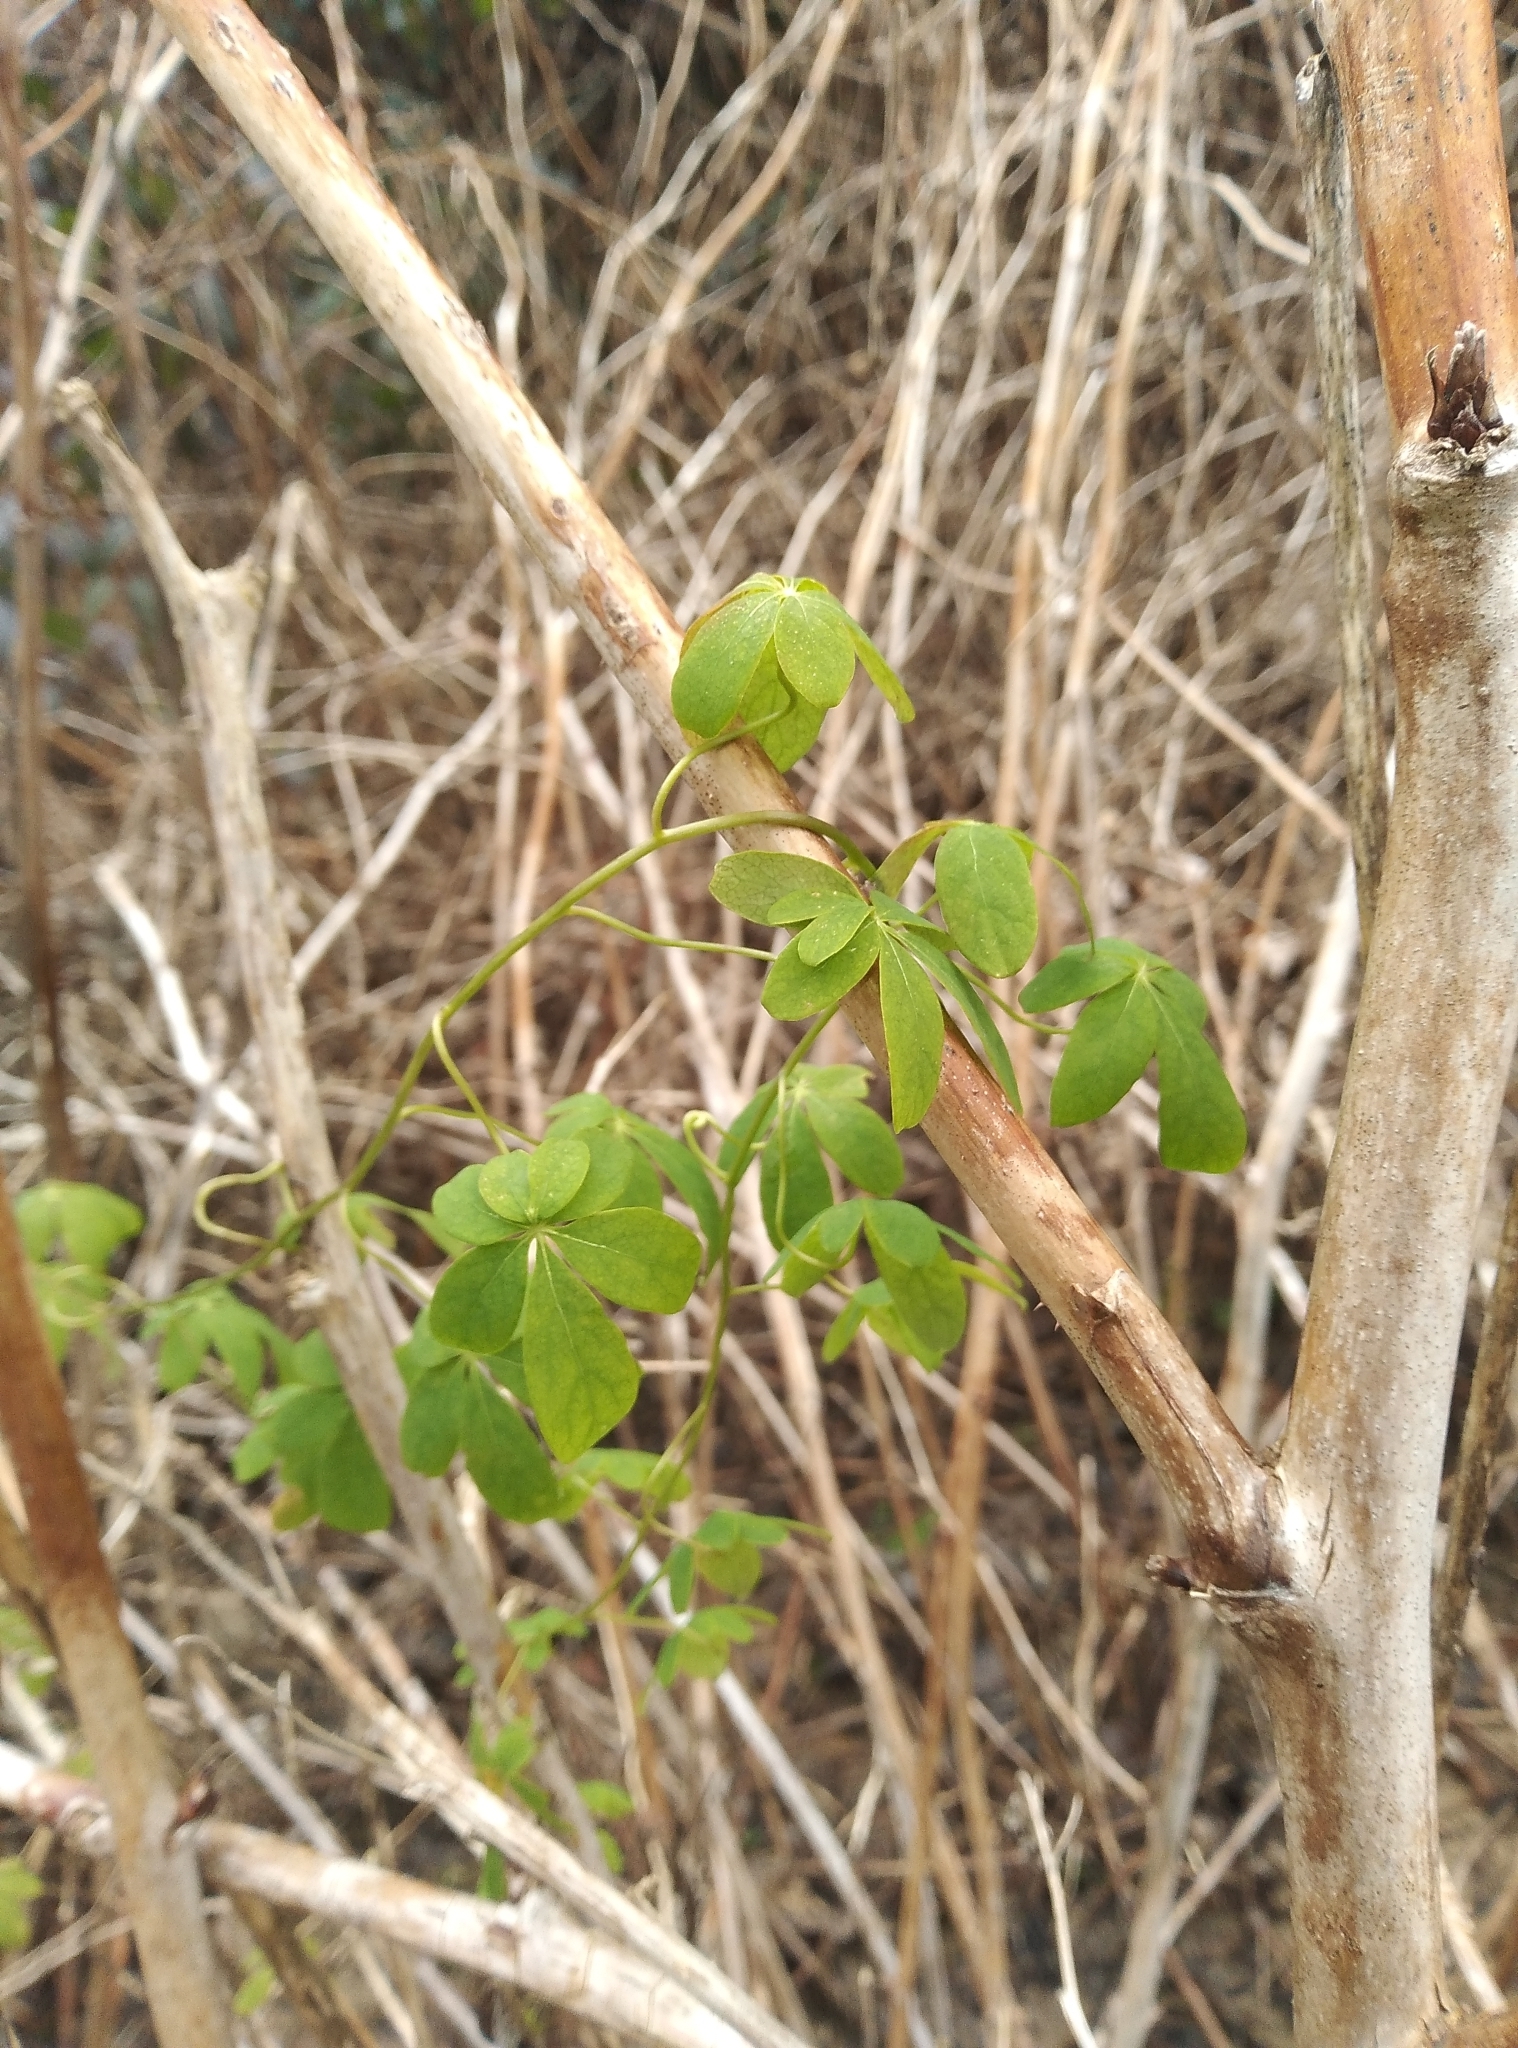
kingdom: Plantae
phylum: Tracheophyta
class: Magnoliopsida
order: Brassicales
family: Tropaeolaceae
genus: Tropaeolum
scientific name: Tropaeolum speciosum
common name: Flame nasturtium
